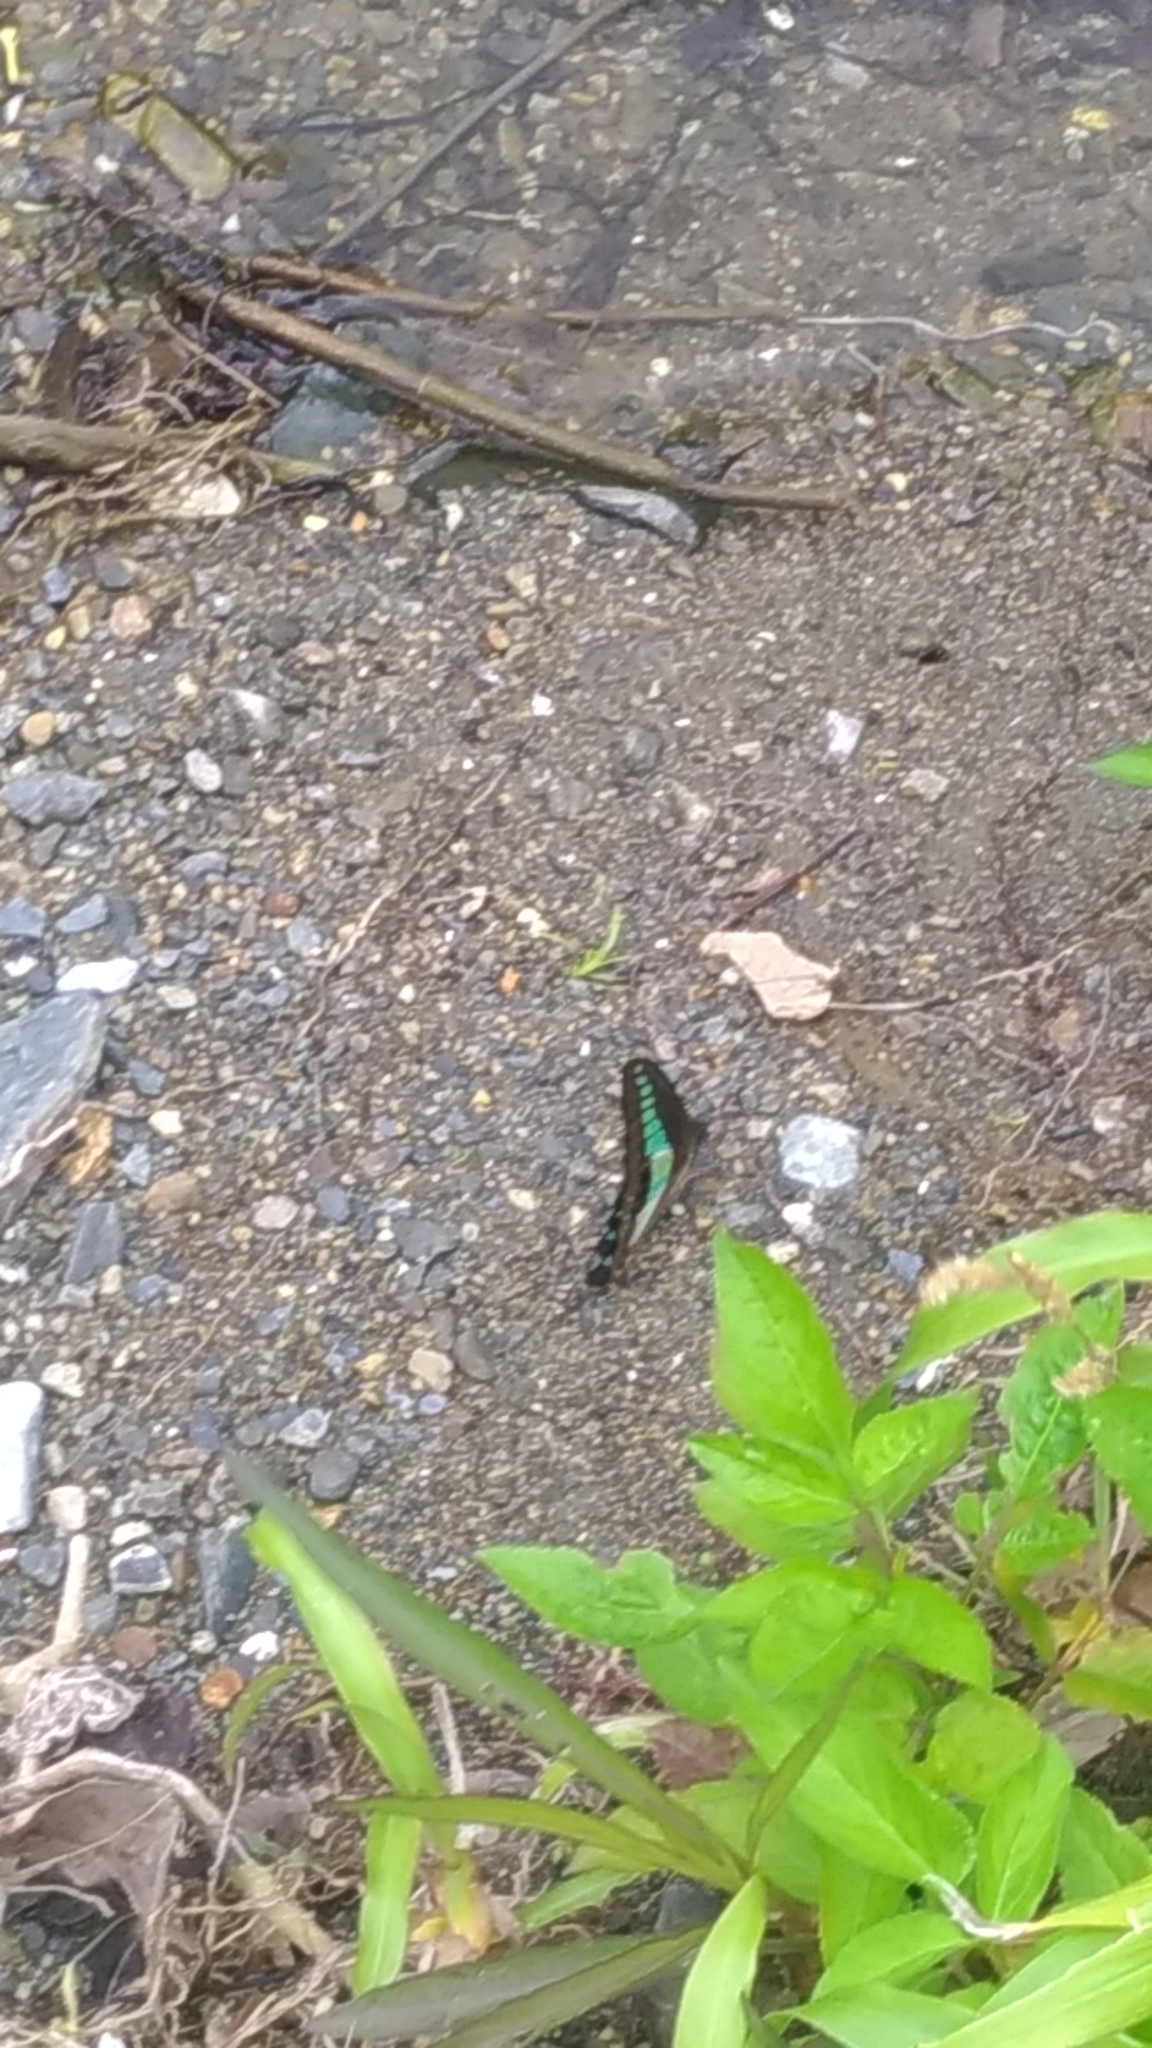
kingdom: Fungi
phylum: Ascomycota
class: Sordariomycetes
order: Microascales
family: Microascaceae
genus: Graphium
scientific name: Graphium sarpedon
